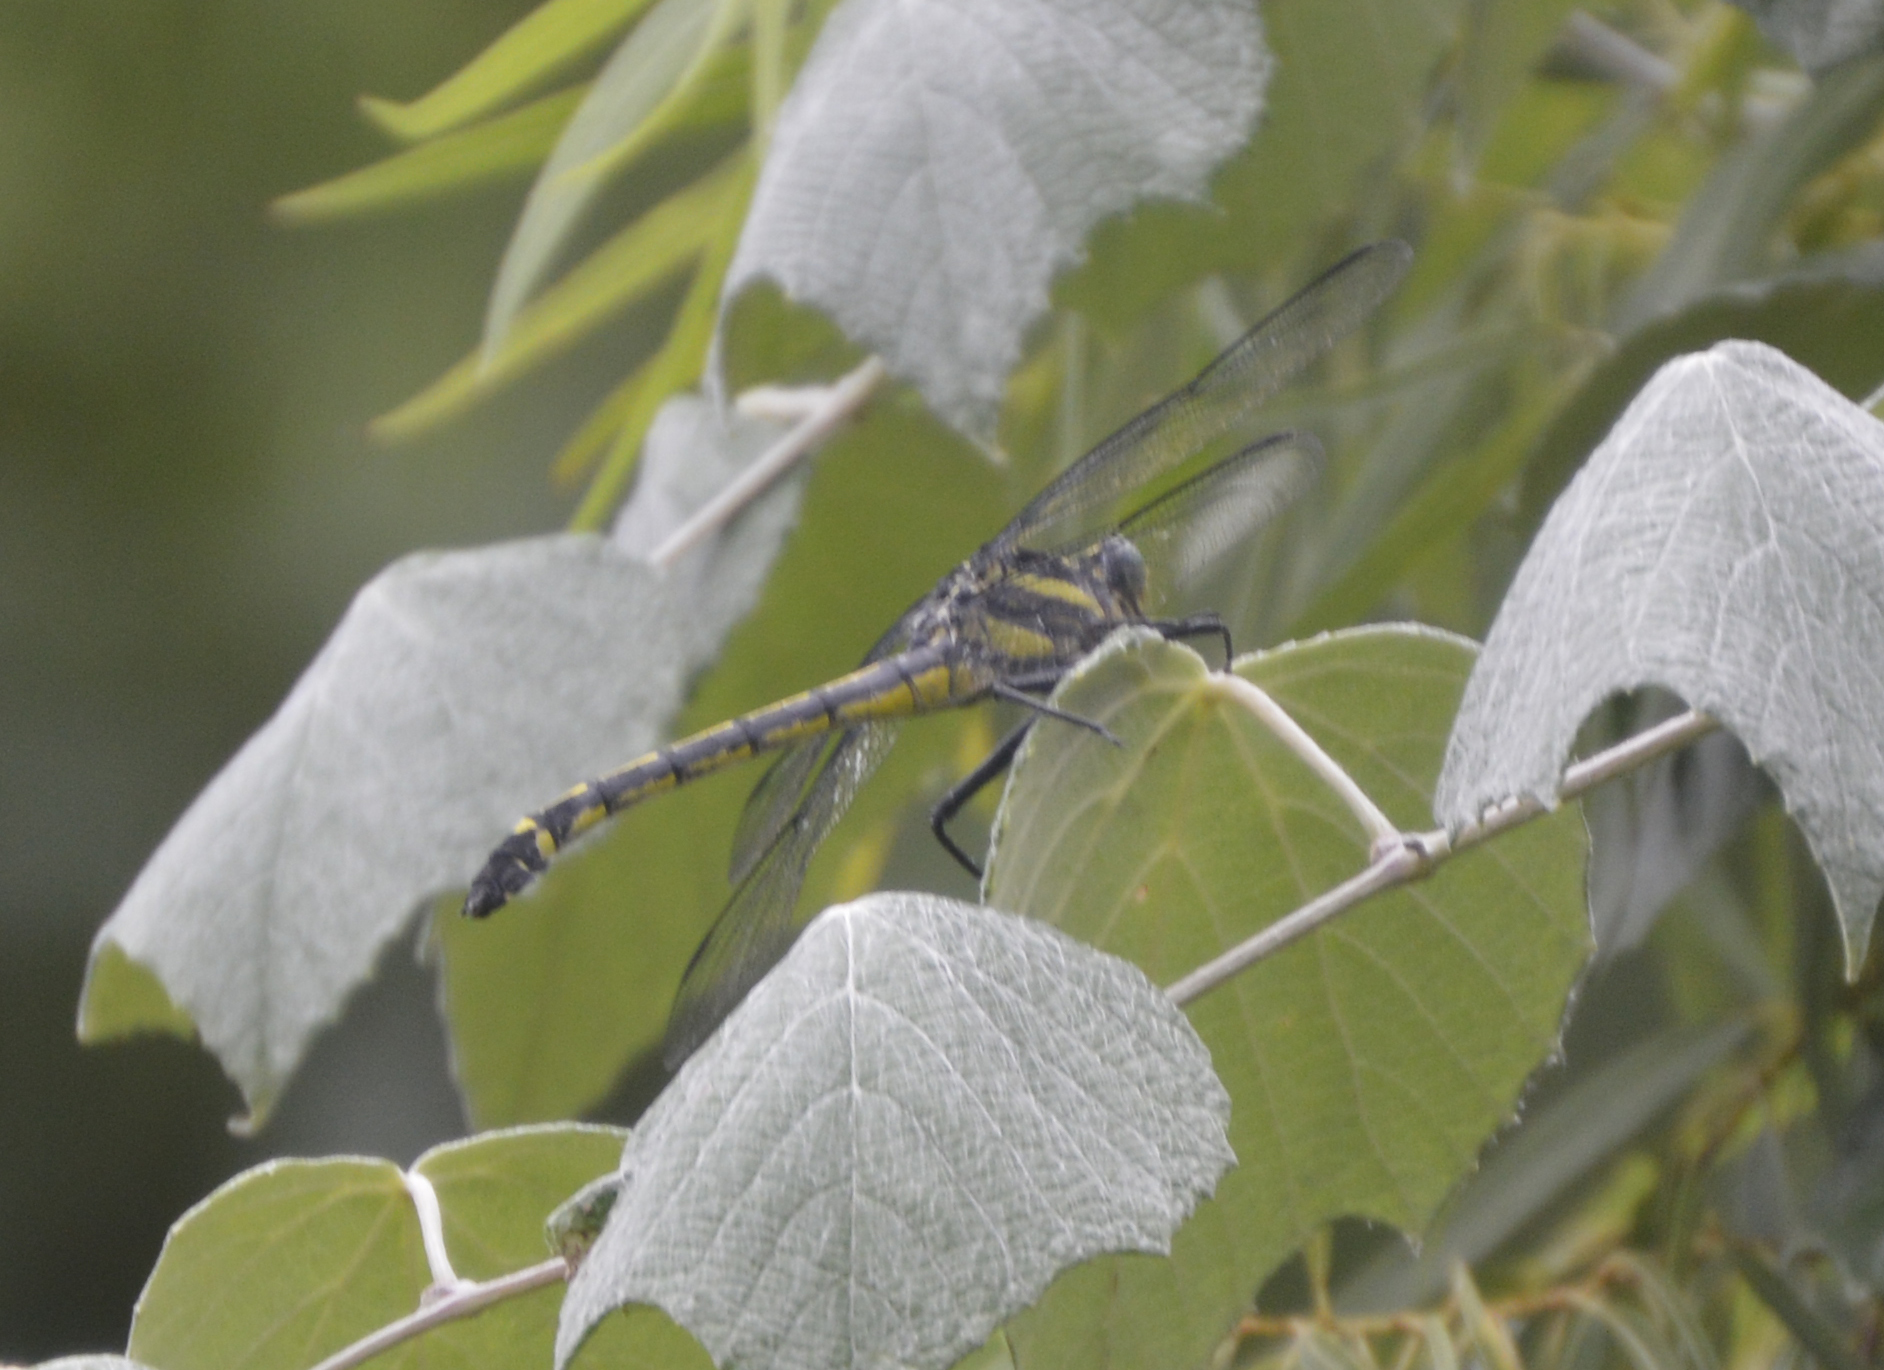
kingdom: Animalia
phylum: Arthropoda
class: Insecta
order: Odonata
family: Gomphidae
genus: Hagenius
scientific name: Hagenius brevistylus
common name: Dragonhunter
